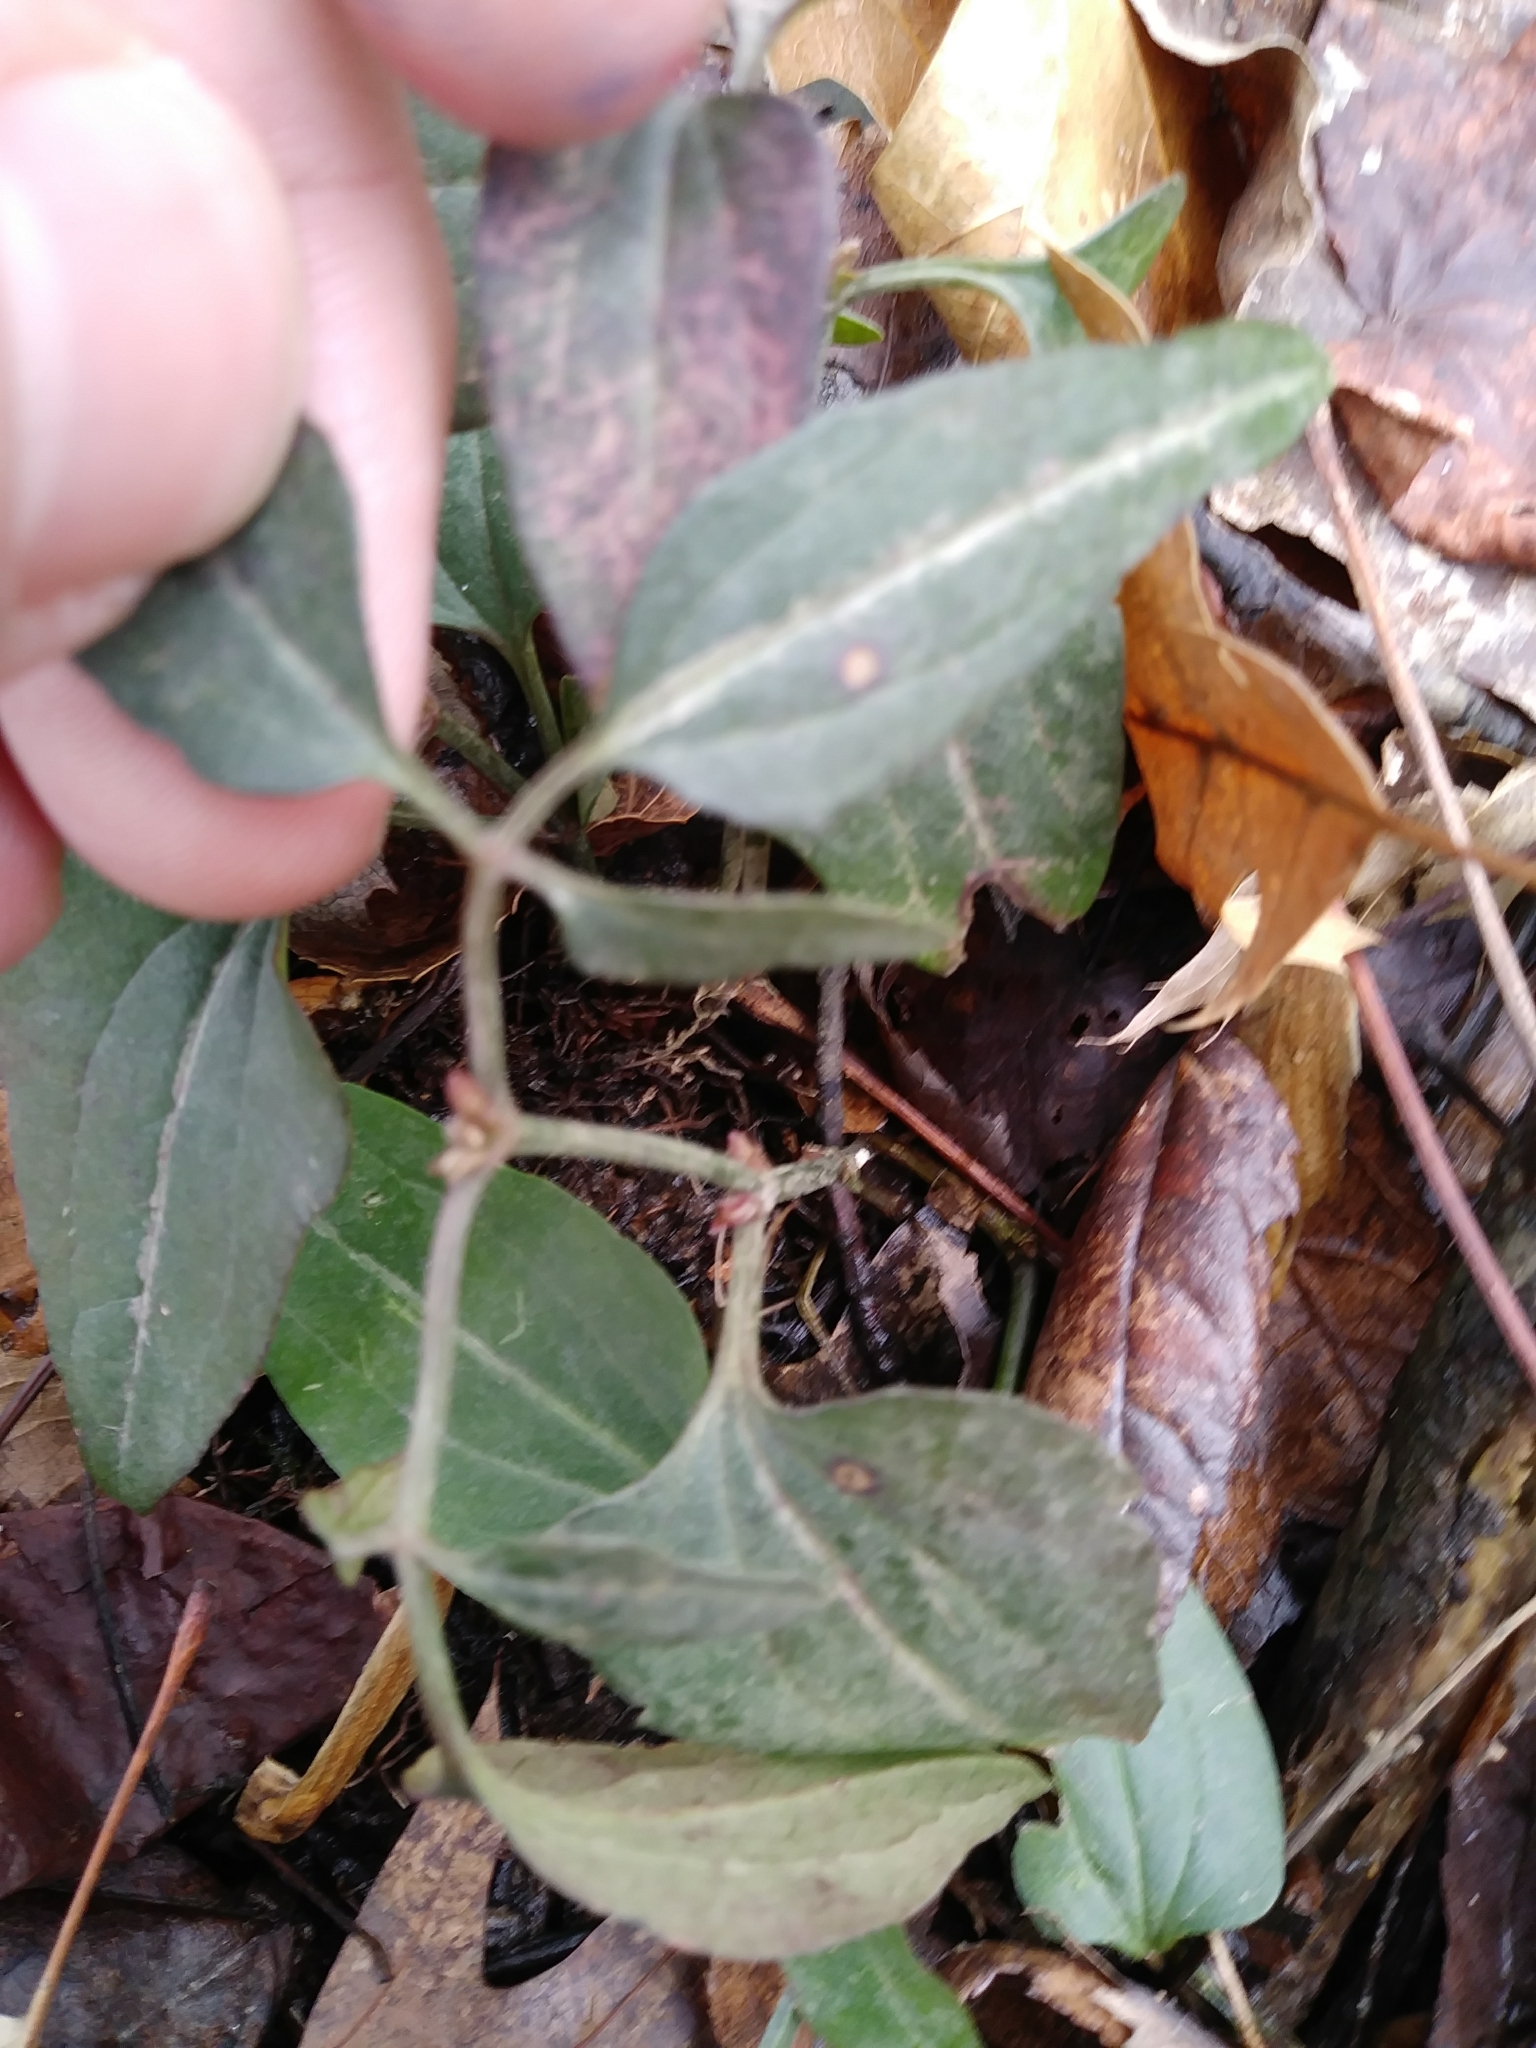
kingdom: Plantae
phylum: Tracheophyta
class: Magnoliopsida
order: Ranunculales
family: Ranunculaceae
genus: Clematis
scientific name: Clematis terniflora
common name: Sweet autumn clematis
